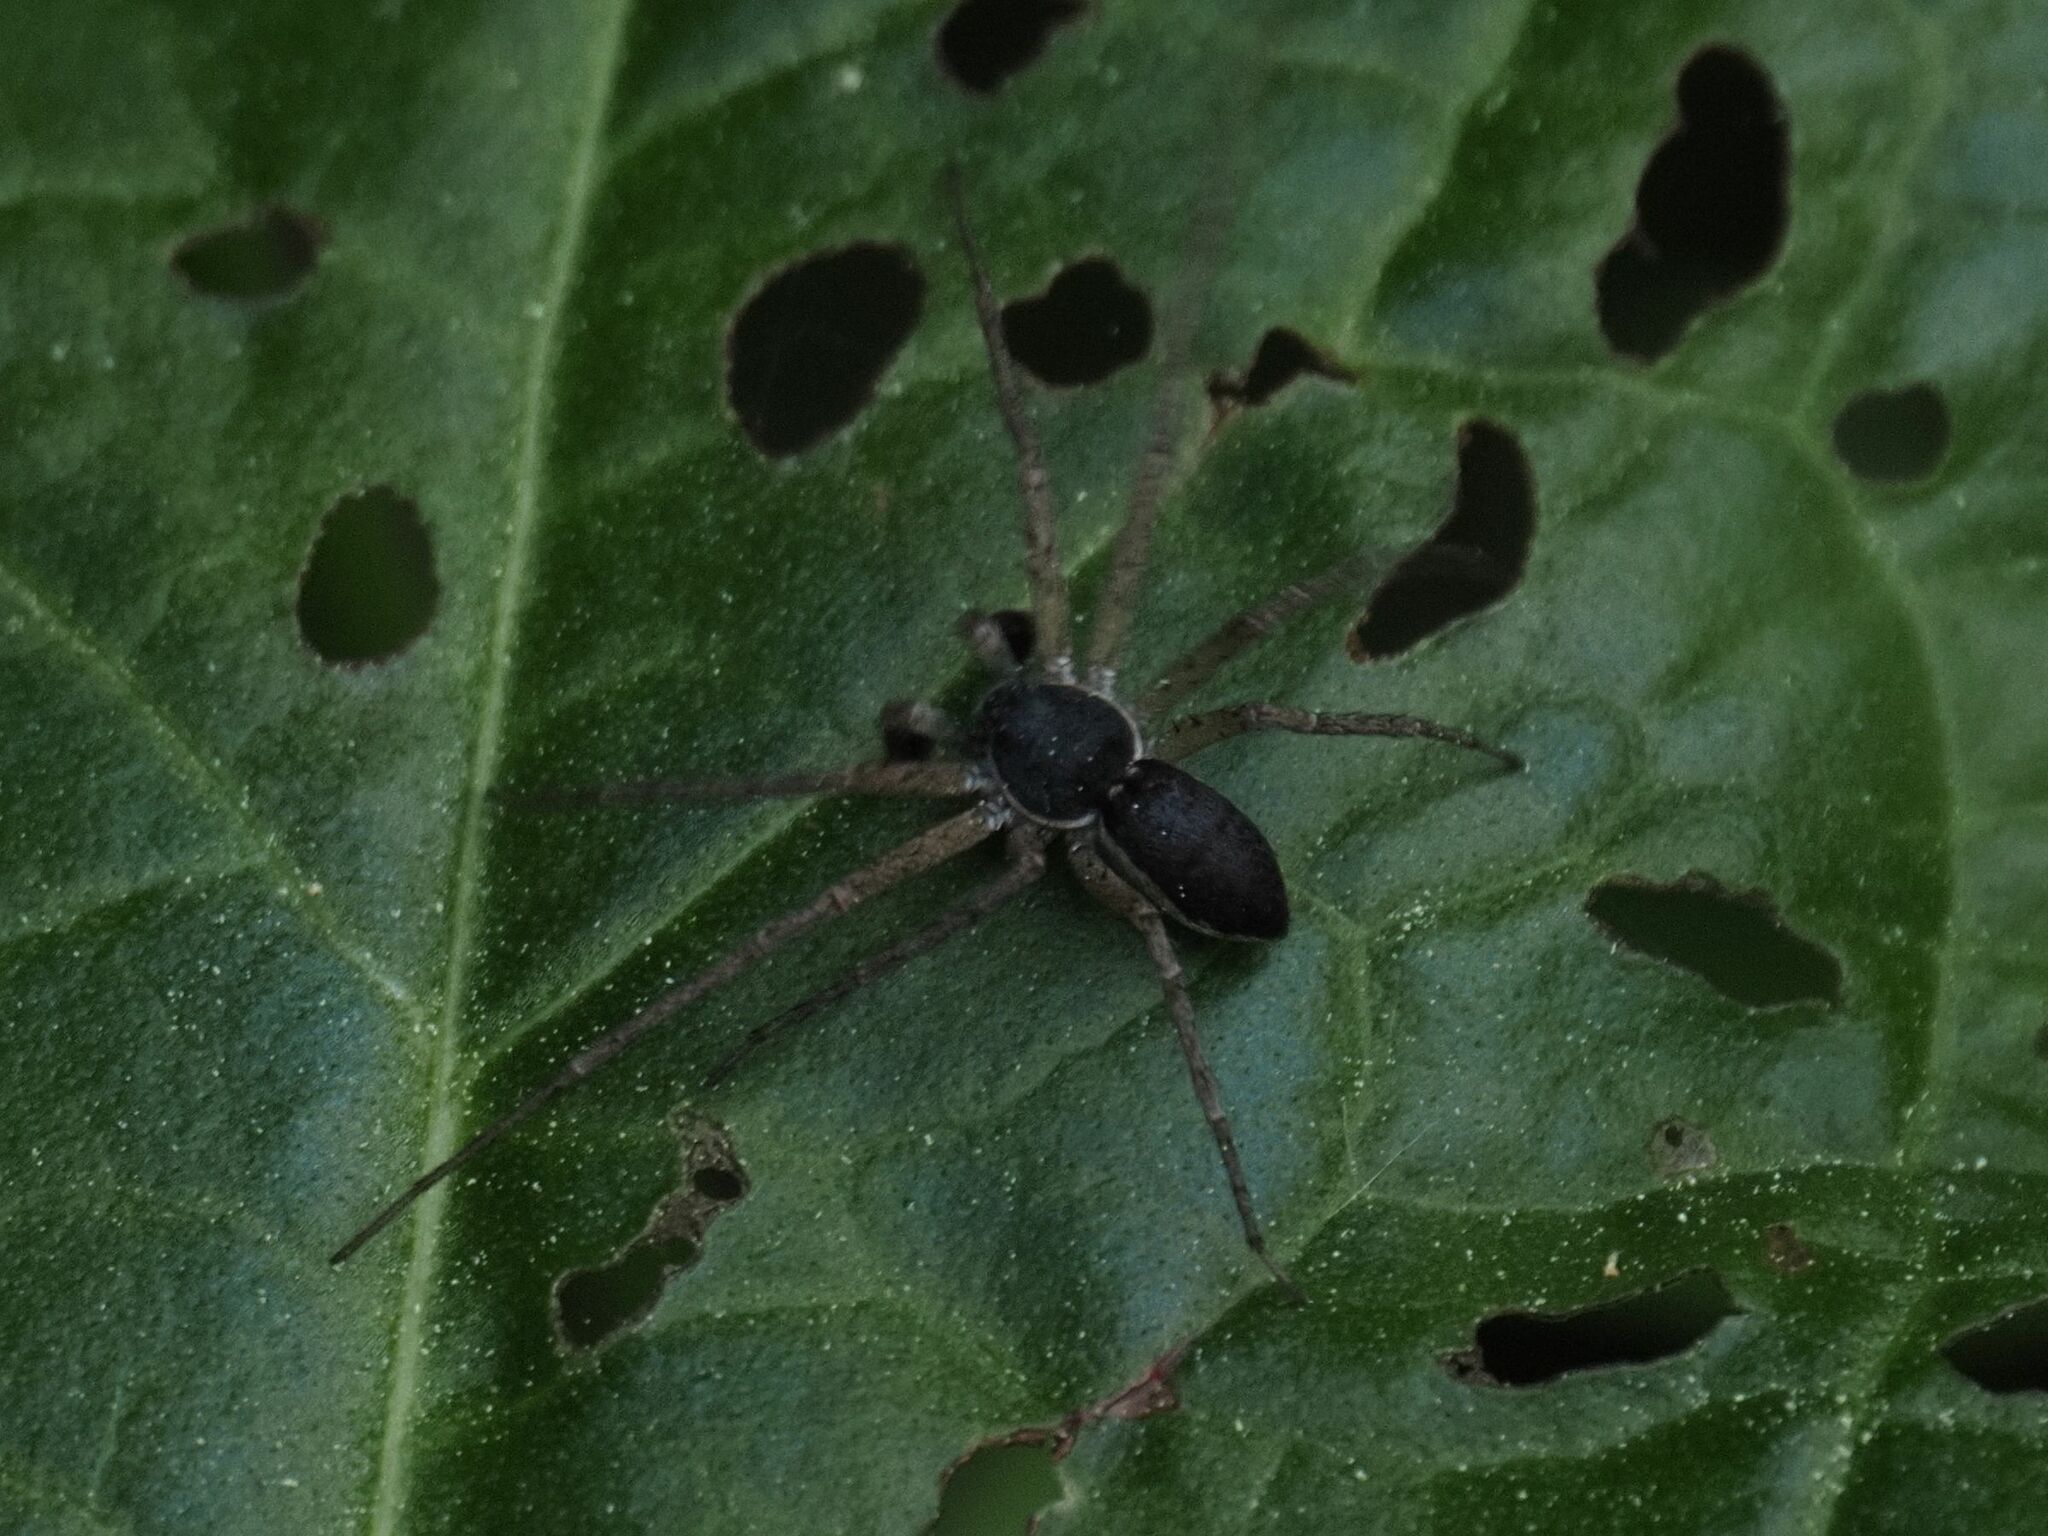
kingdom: Animalia
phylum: Arthropoda
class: Arachnida
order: Araneae
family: Philodromidae
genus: Philodromus
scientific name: Philodromus dispar
